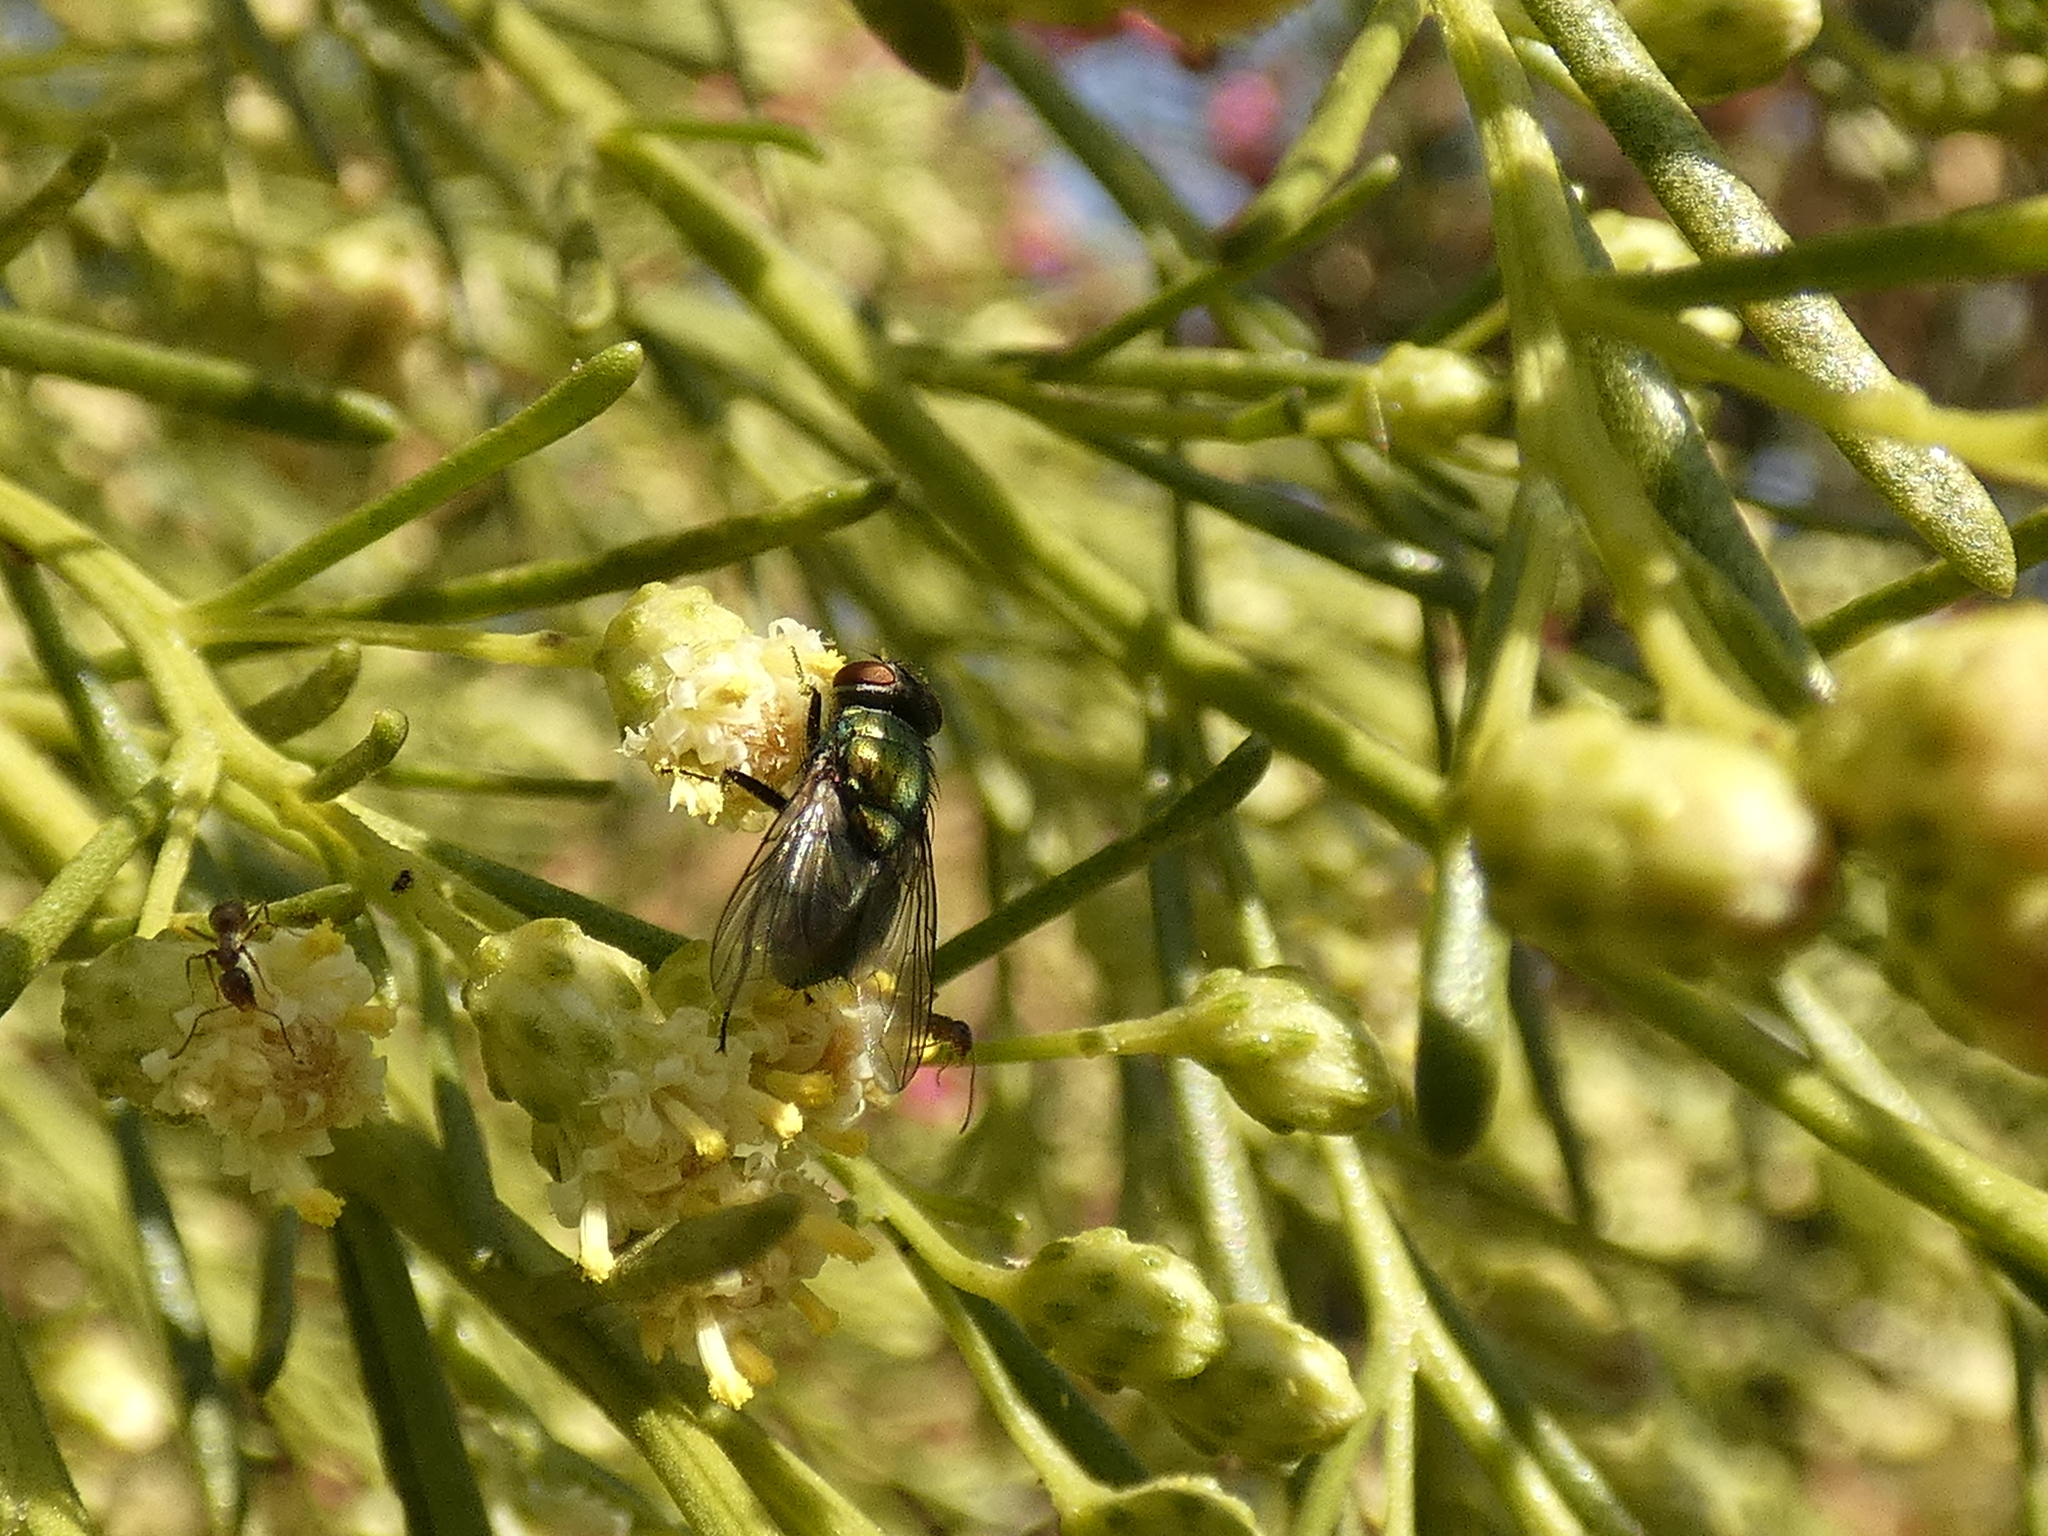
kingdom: Animalia
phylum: Arthropoda
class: Insecta
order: Diptera
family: Calliphoridae
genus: Lucilia
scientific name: Lucilia sericata
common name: Blow fly
